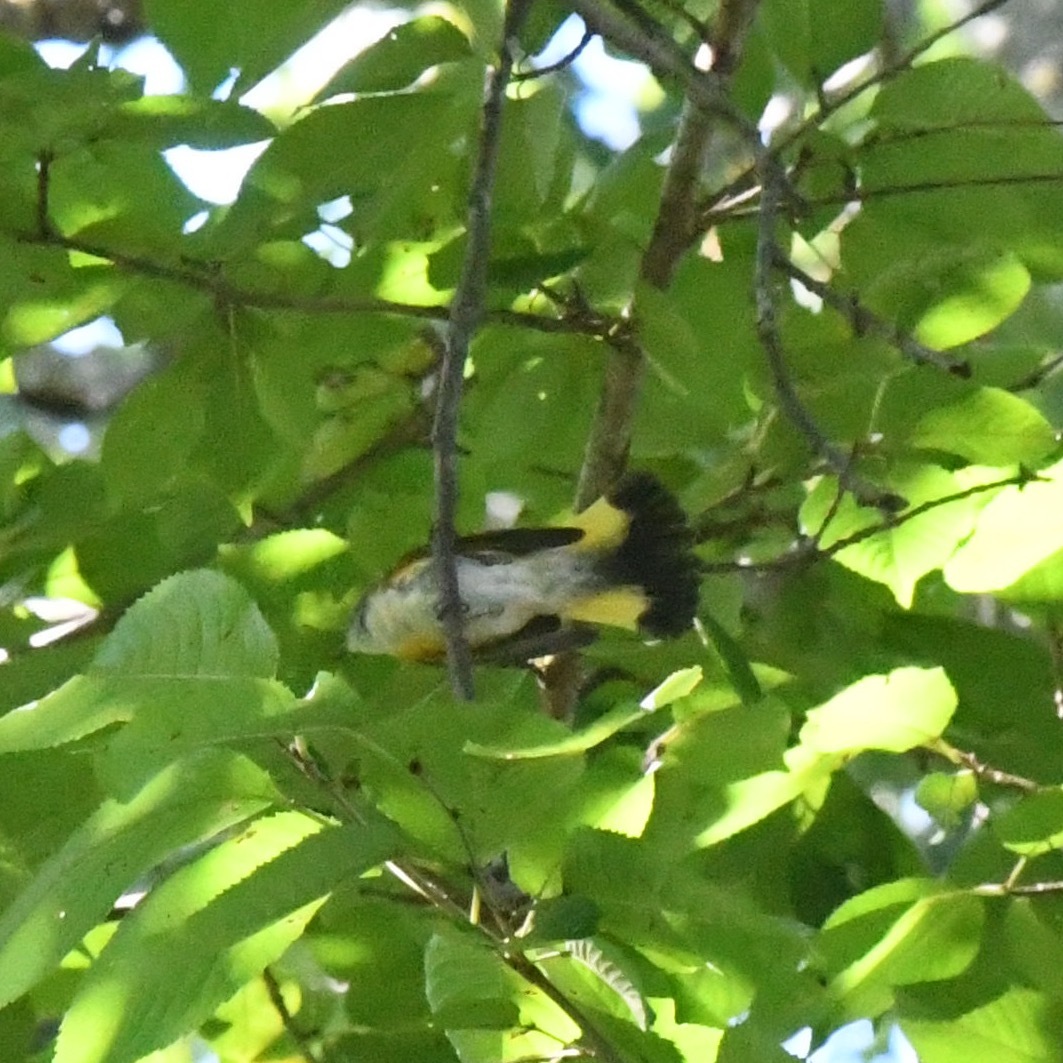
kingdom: Animalia
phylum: Chordata
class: Aves
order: Passeriformes
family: Parulidae
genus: Setophaga
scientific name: Setophaga ruticilla
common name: American redstart
